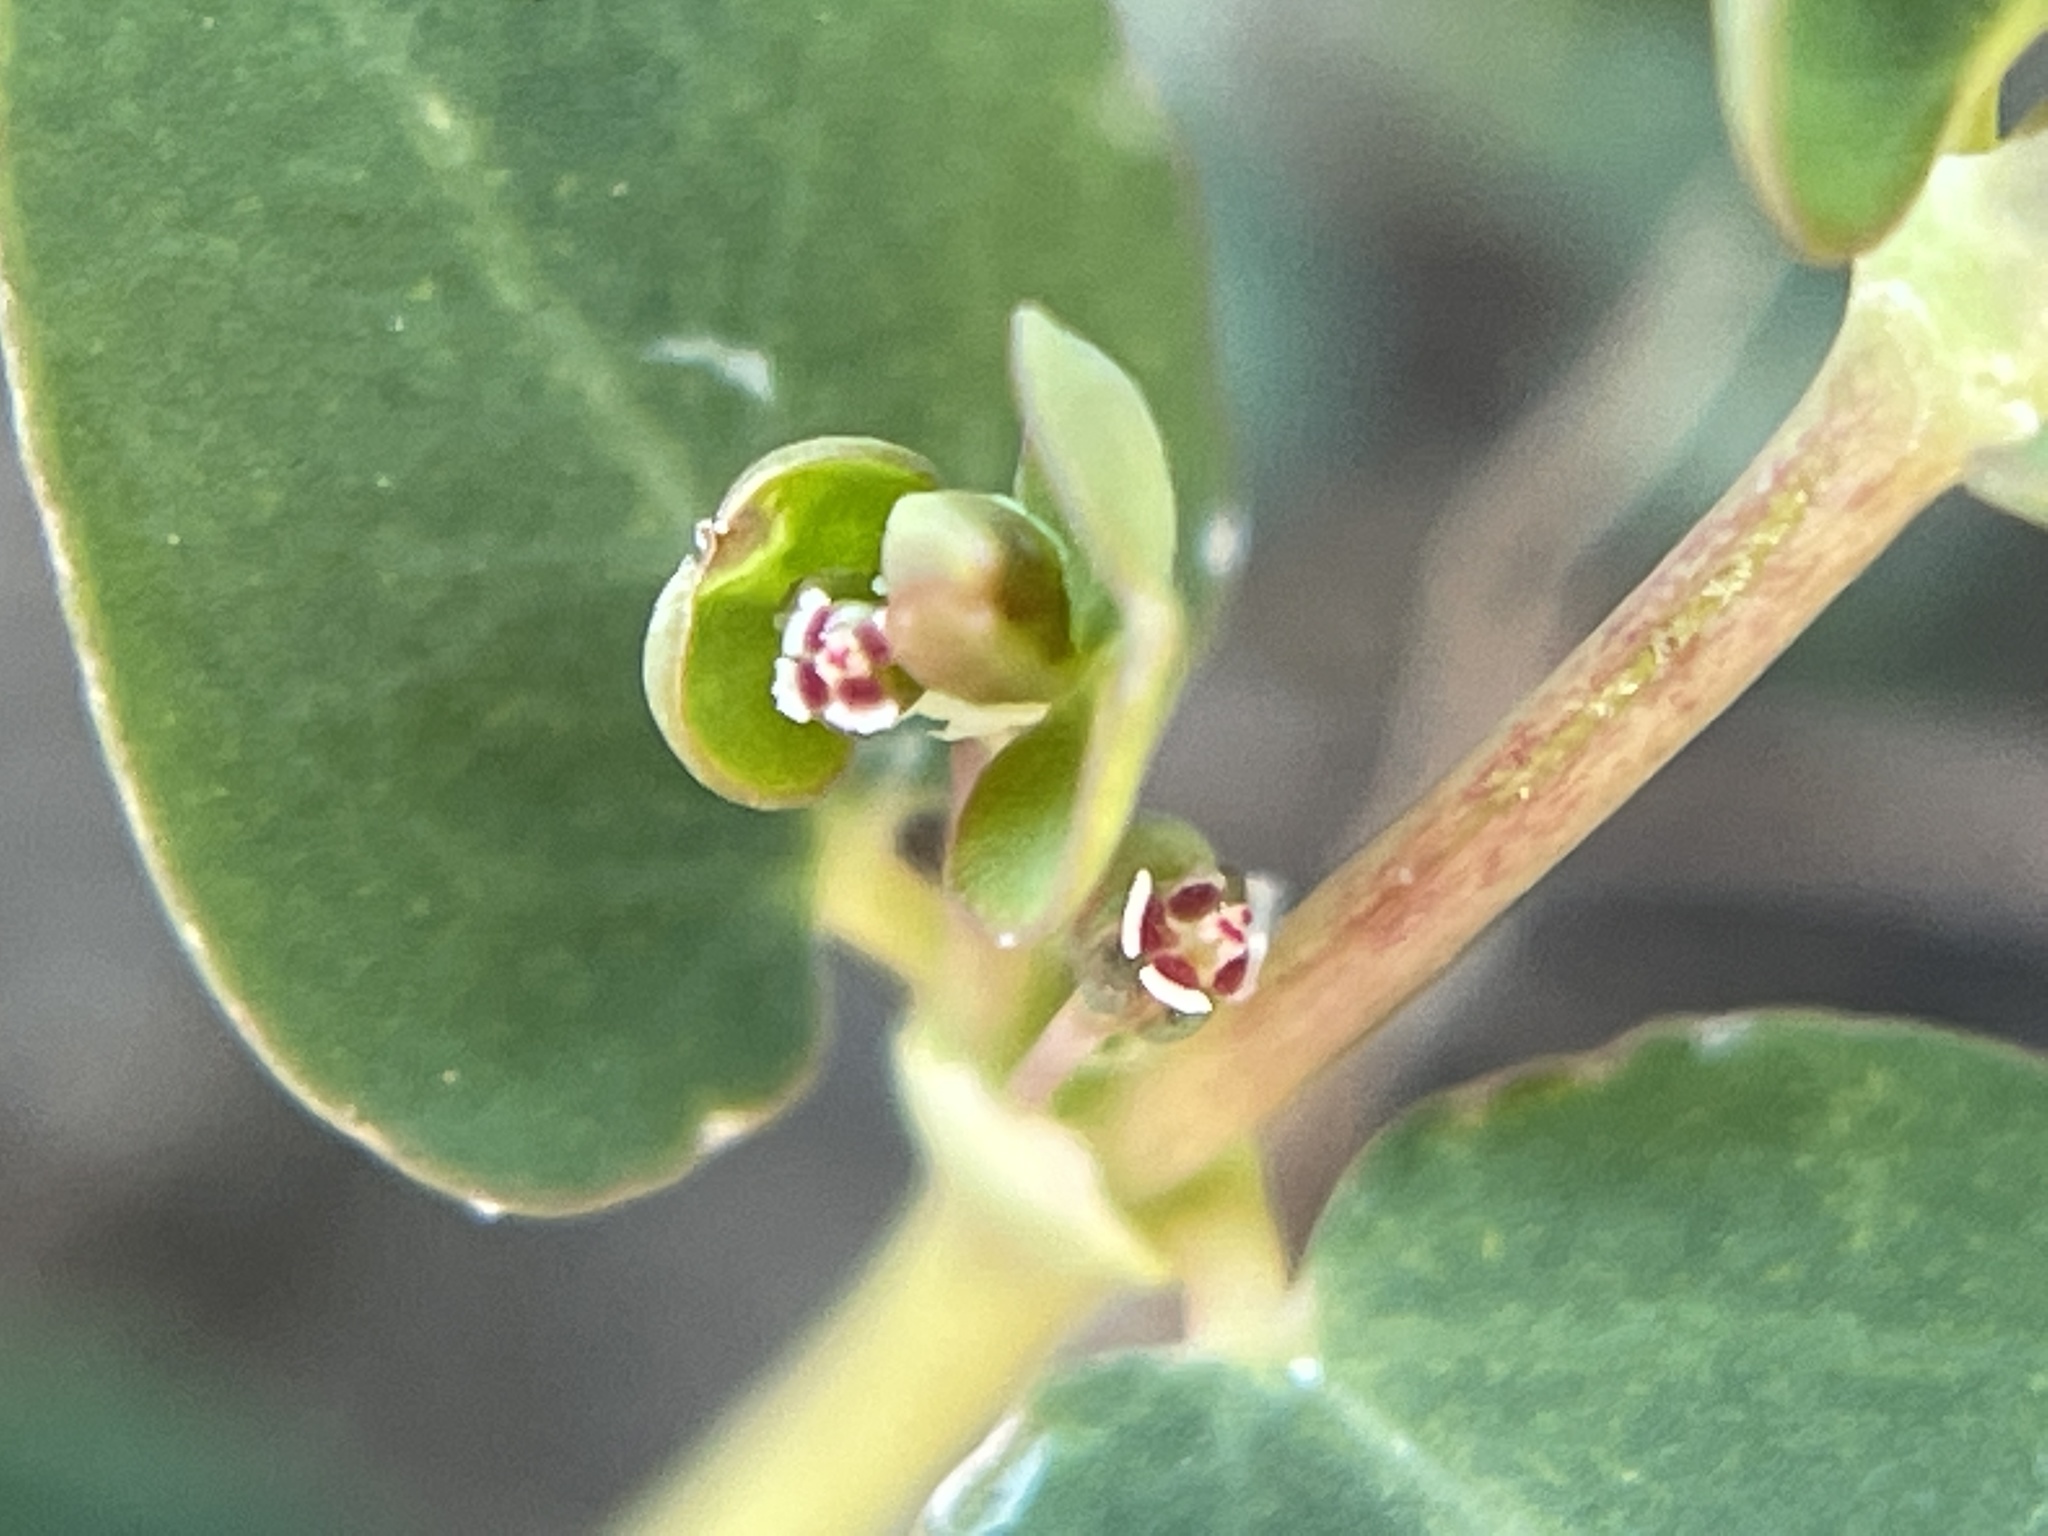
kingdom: Plantae
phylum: Tracheophyta
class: Magnoliopsida
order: Malpighiales
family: Euphorbiaceae
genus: Euphorbia
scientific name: Euphorbia serpens
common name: Matted sandmat
